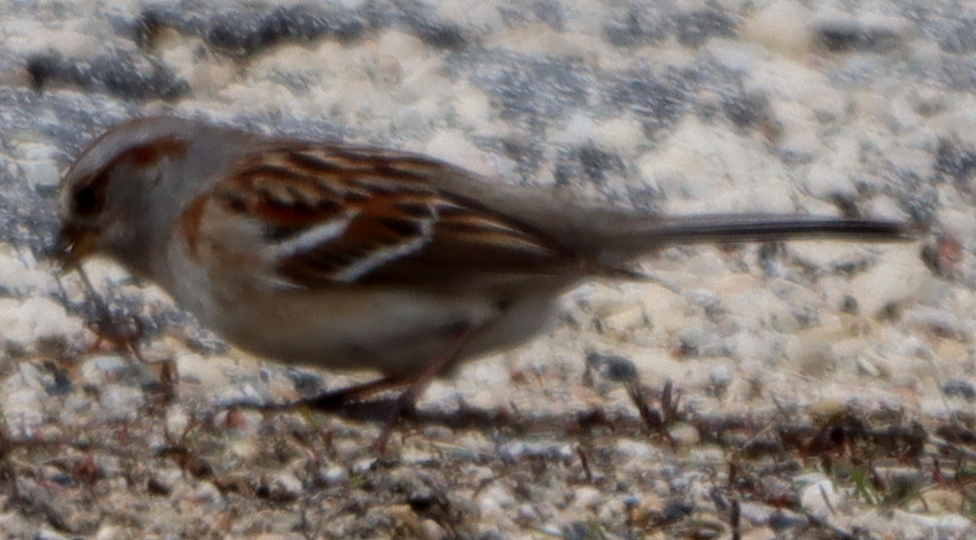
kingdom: Animalia
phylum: Chordata
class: Aves
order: Passeriformes
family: Passerellidae
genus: Spizelloides
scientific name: Spizelloides arborea
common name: American tree sparrow
